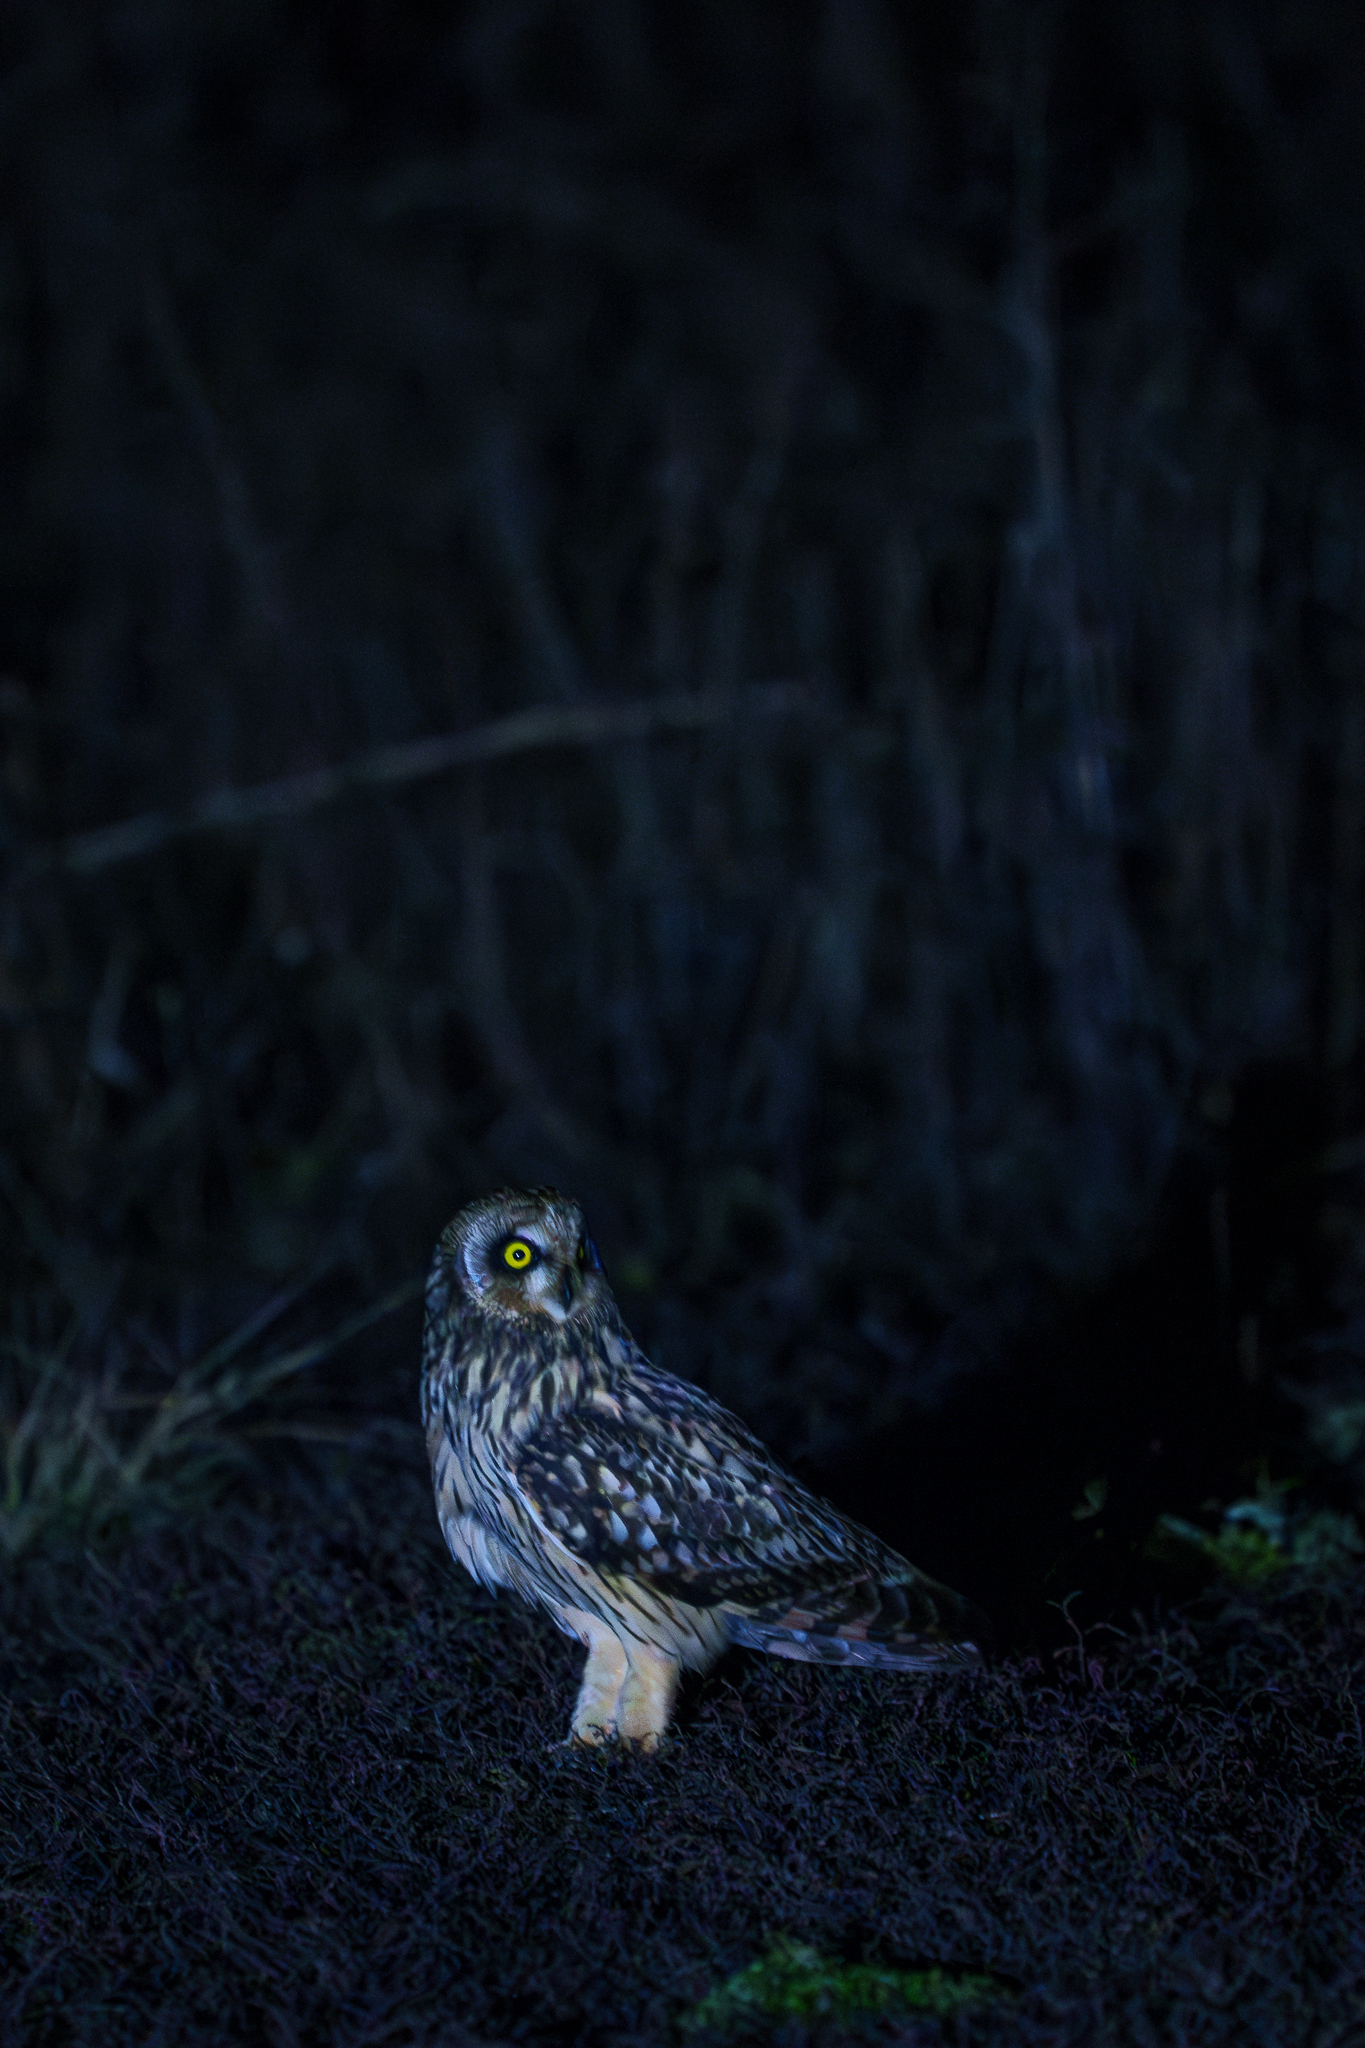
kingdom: Animalia
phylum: Chordata
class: Aves
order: Strigiformes
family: Strigidae
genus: Asio
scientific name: Asio flammeus
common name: Short-eared owl
